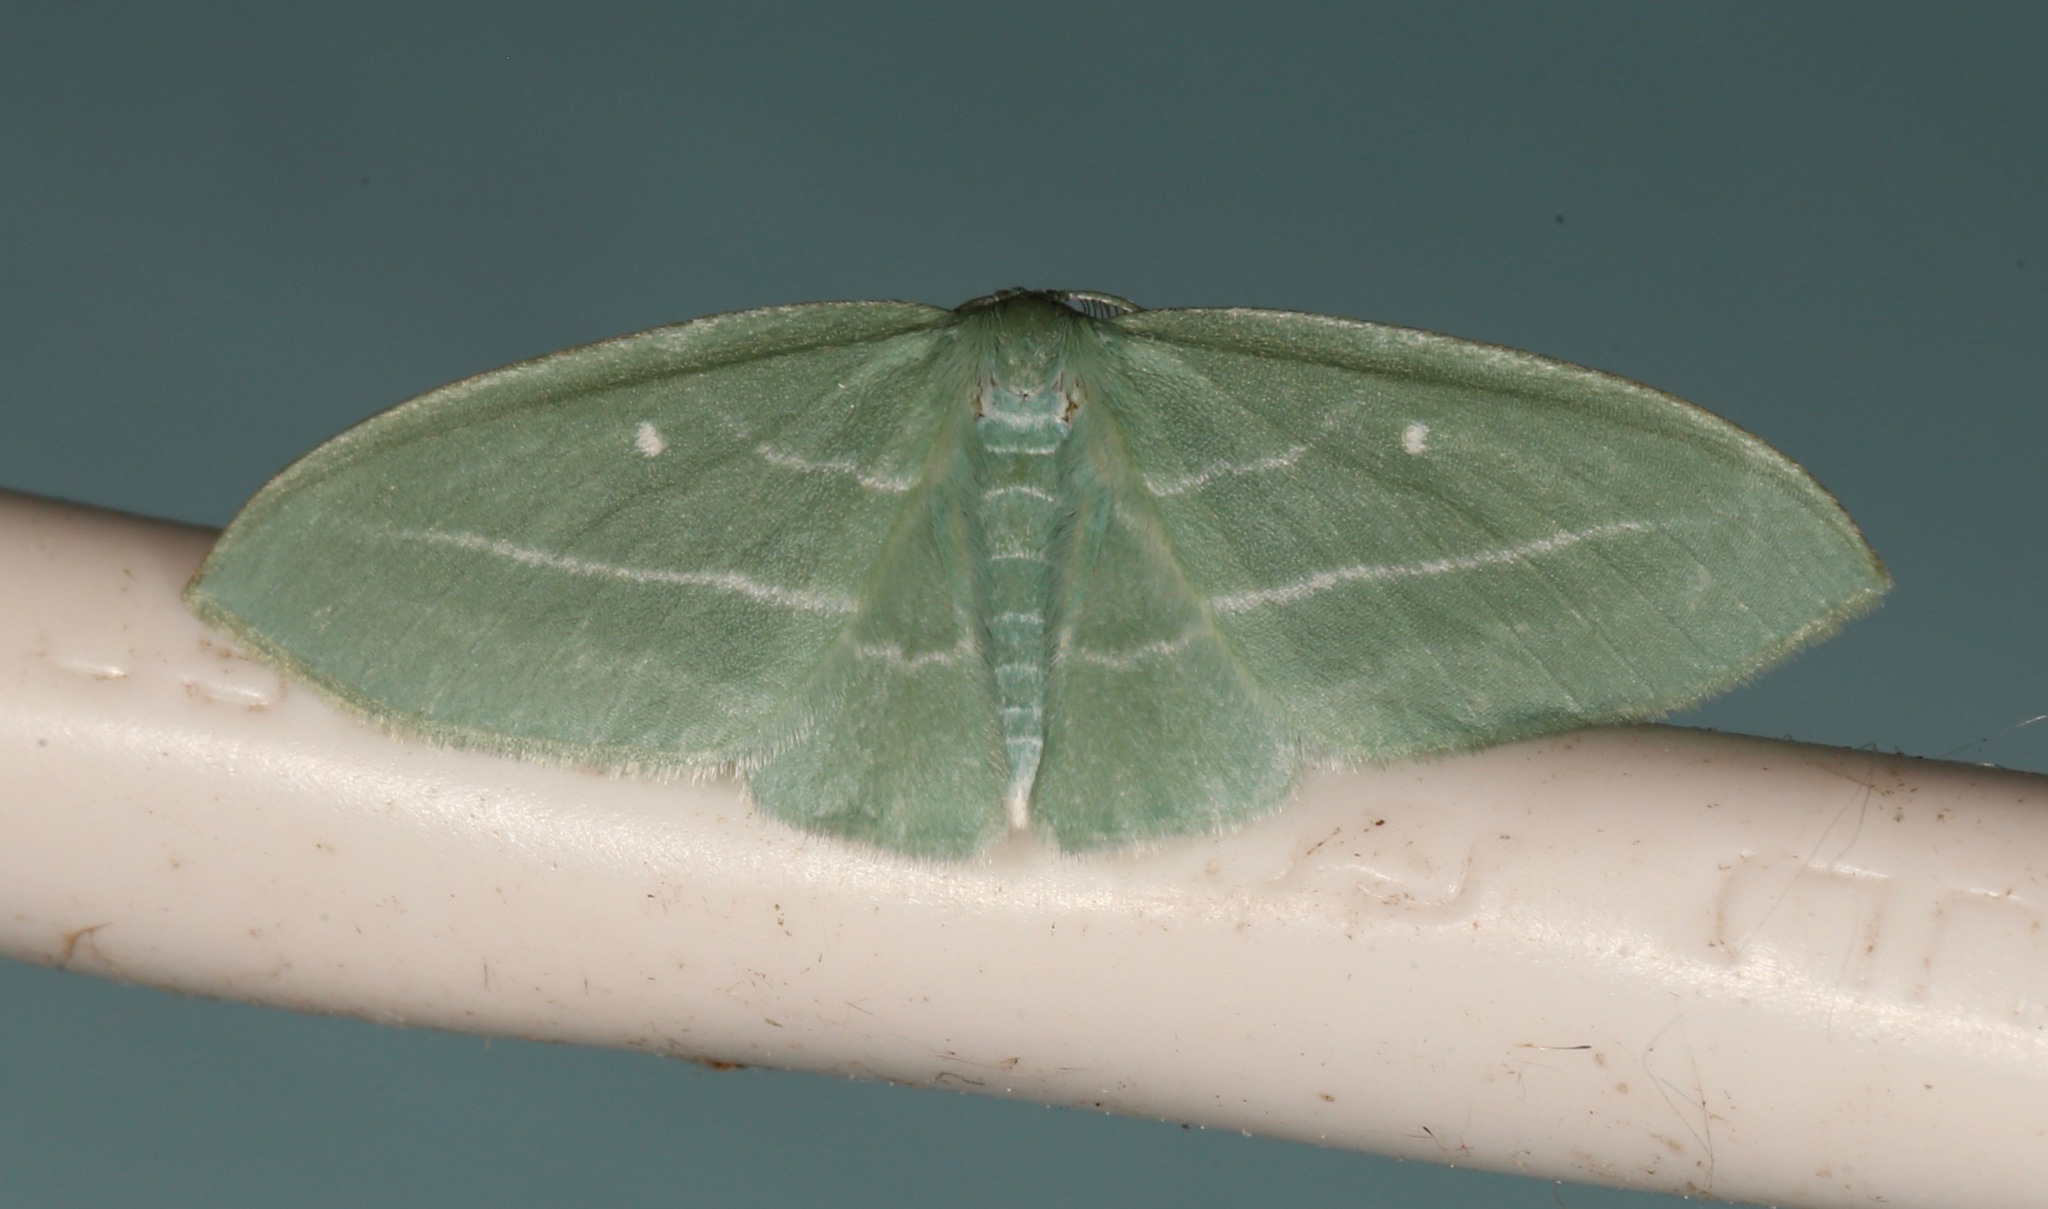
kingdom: Animalia
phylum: Arthropoda
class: Insecta
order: Lepidoptera
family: Geometridae
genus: Dyspteris
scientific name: Dyspteris abortivaria
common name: Bad-wing
